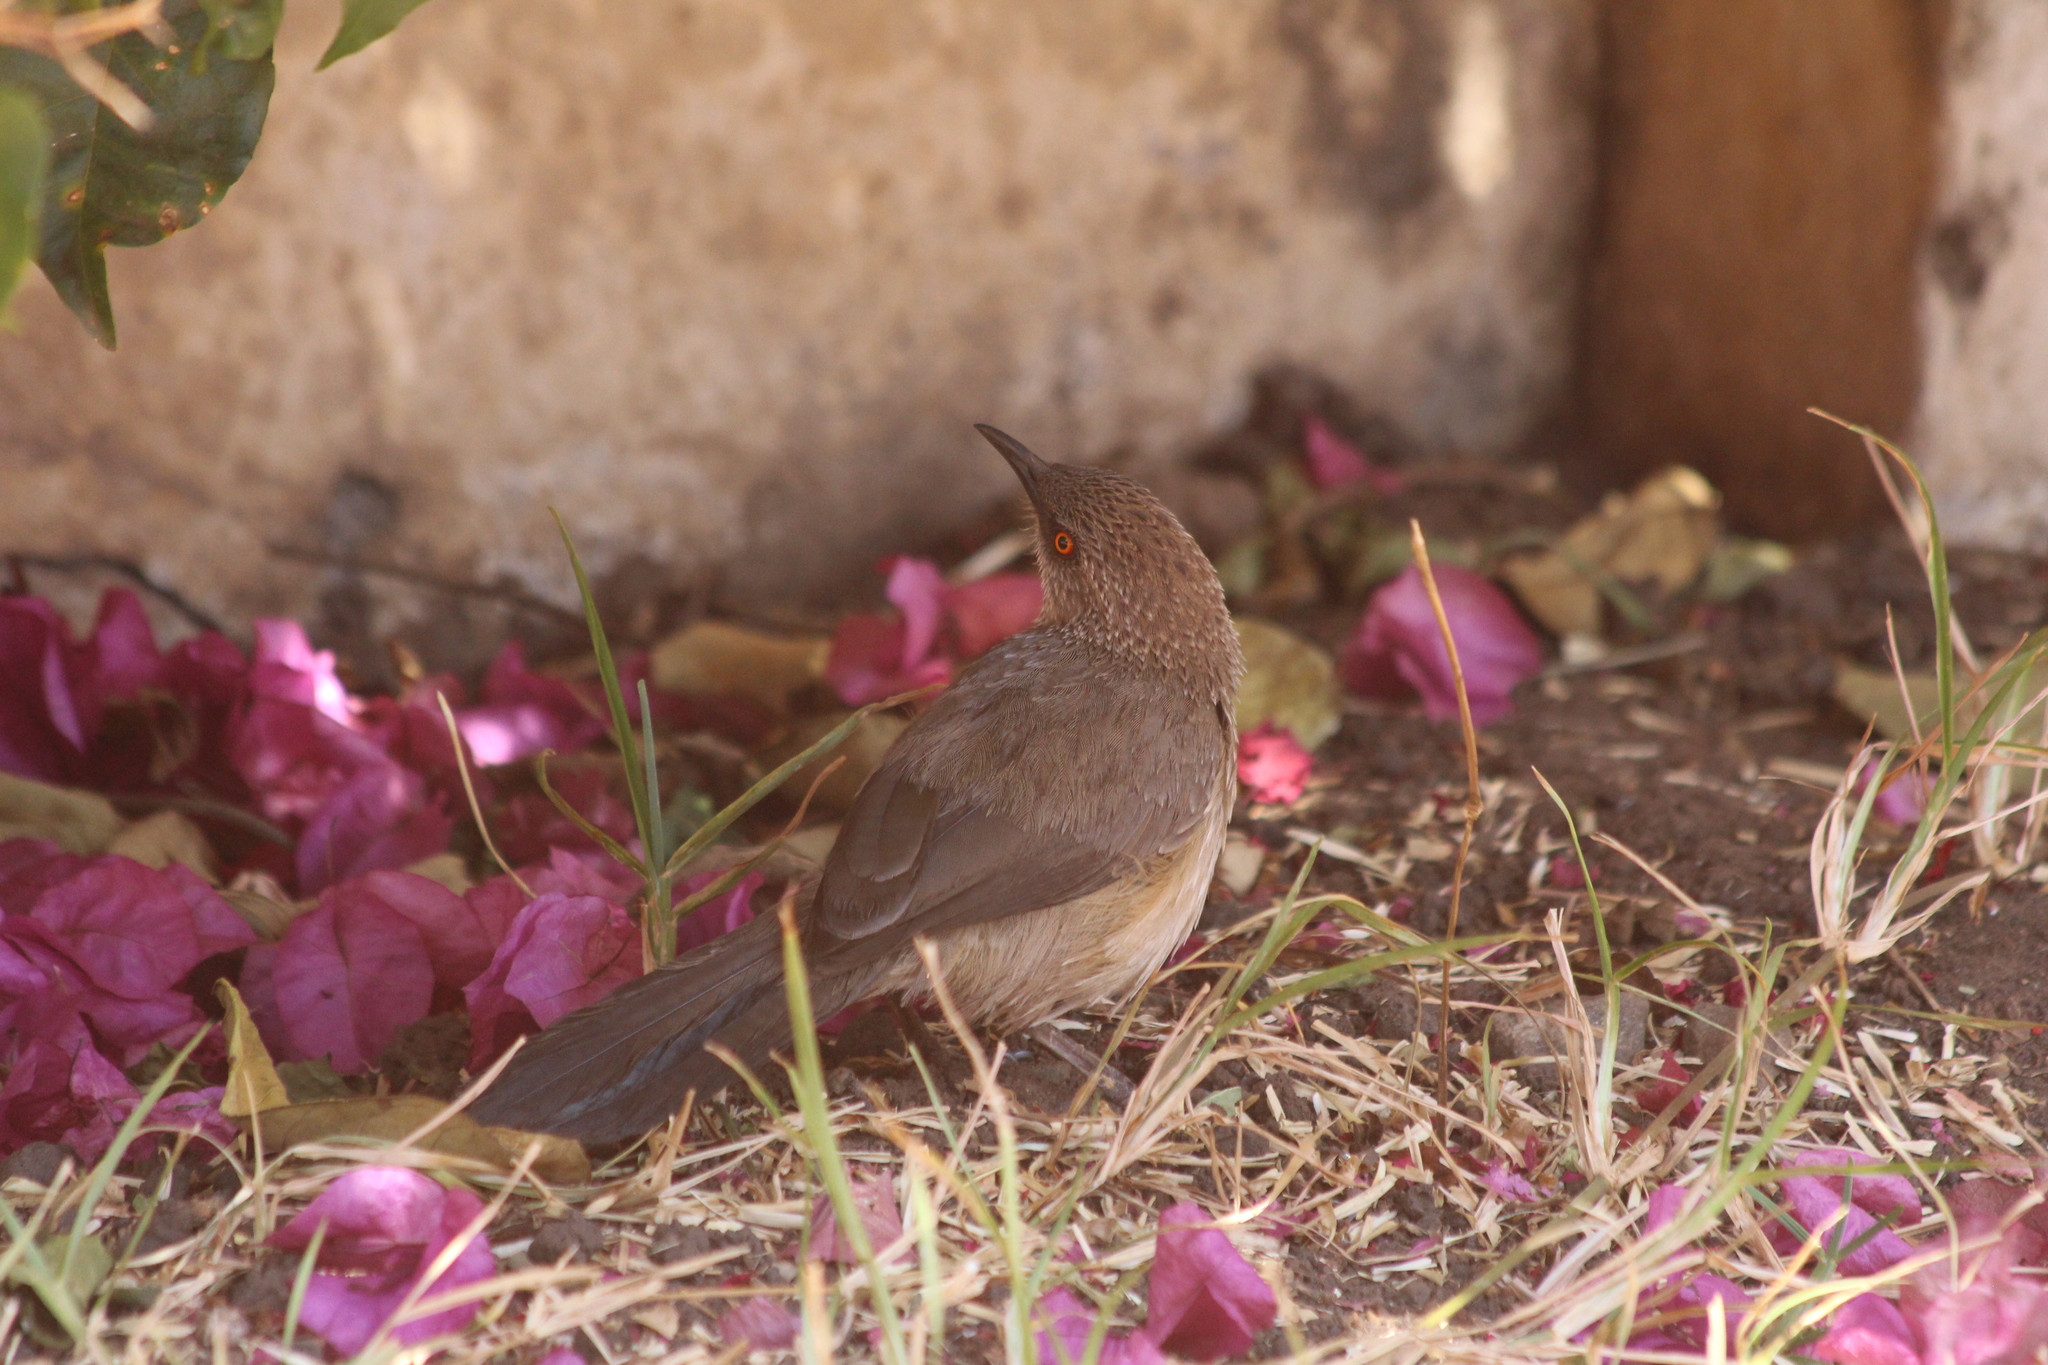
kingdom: Animalia
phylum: Chordata
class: Aves
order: Passeriformes
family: Leiothrichidae
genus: Turdoides
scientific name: Turdoides jardineii
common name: Arrow-marked babbler
